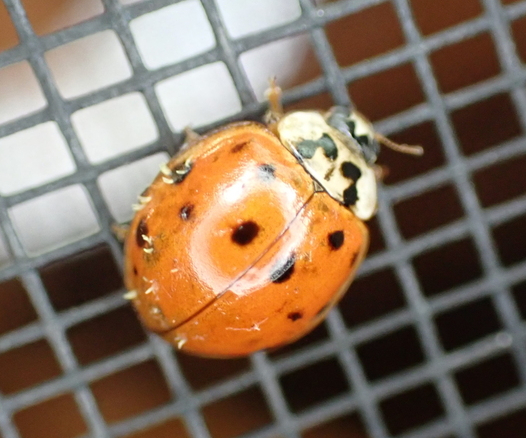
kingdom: Animalia
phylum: Arthropoda
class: Insecta
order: Coleoptera
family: Coccinellidae
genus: Harmonia
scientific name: Harmonia axyridis
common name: Harlequin ladybird
